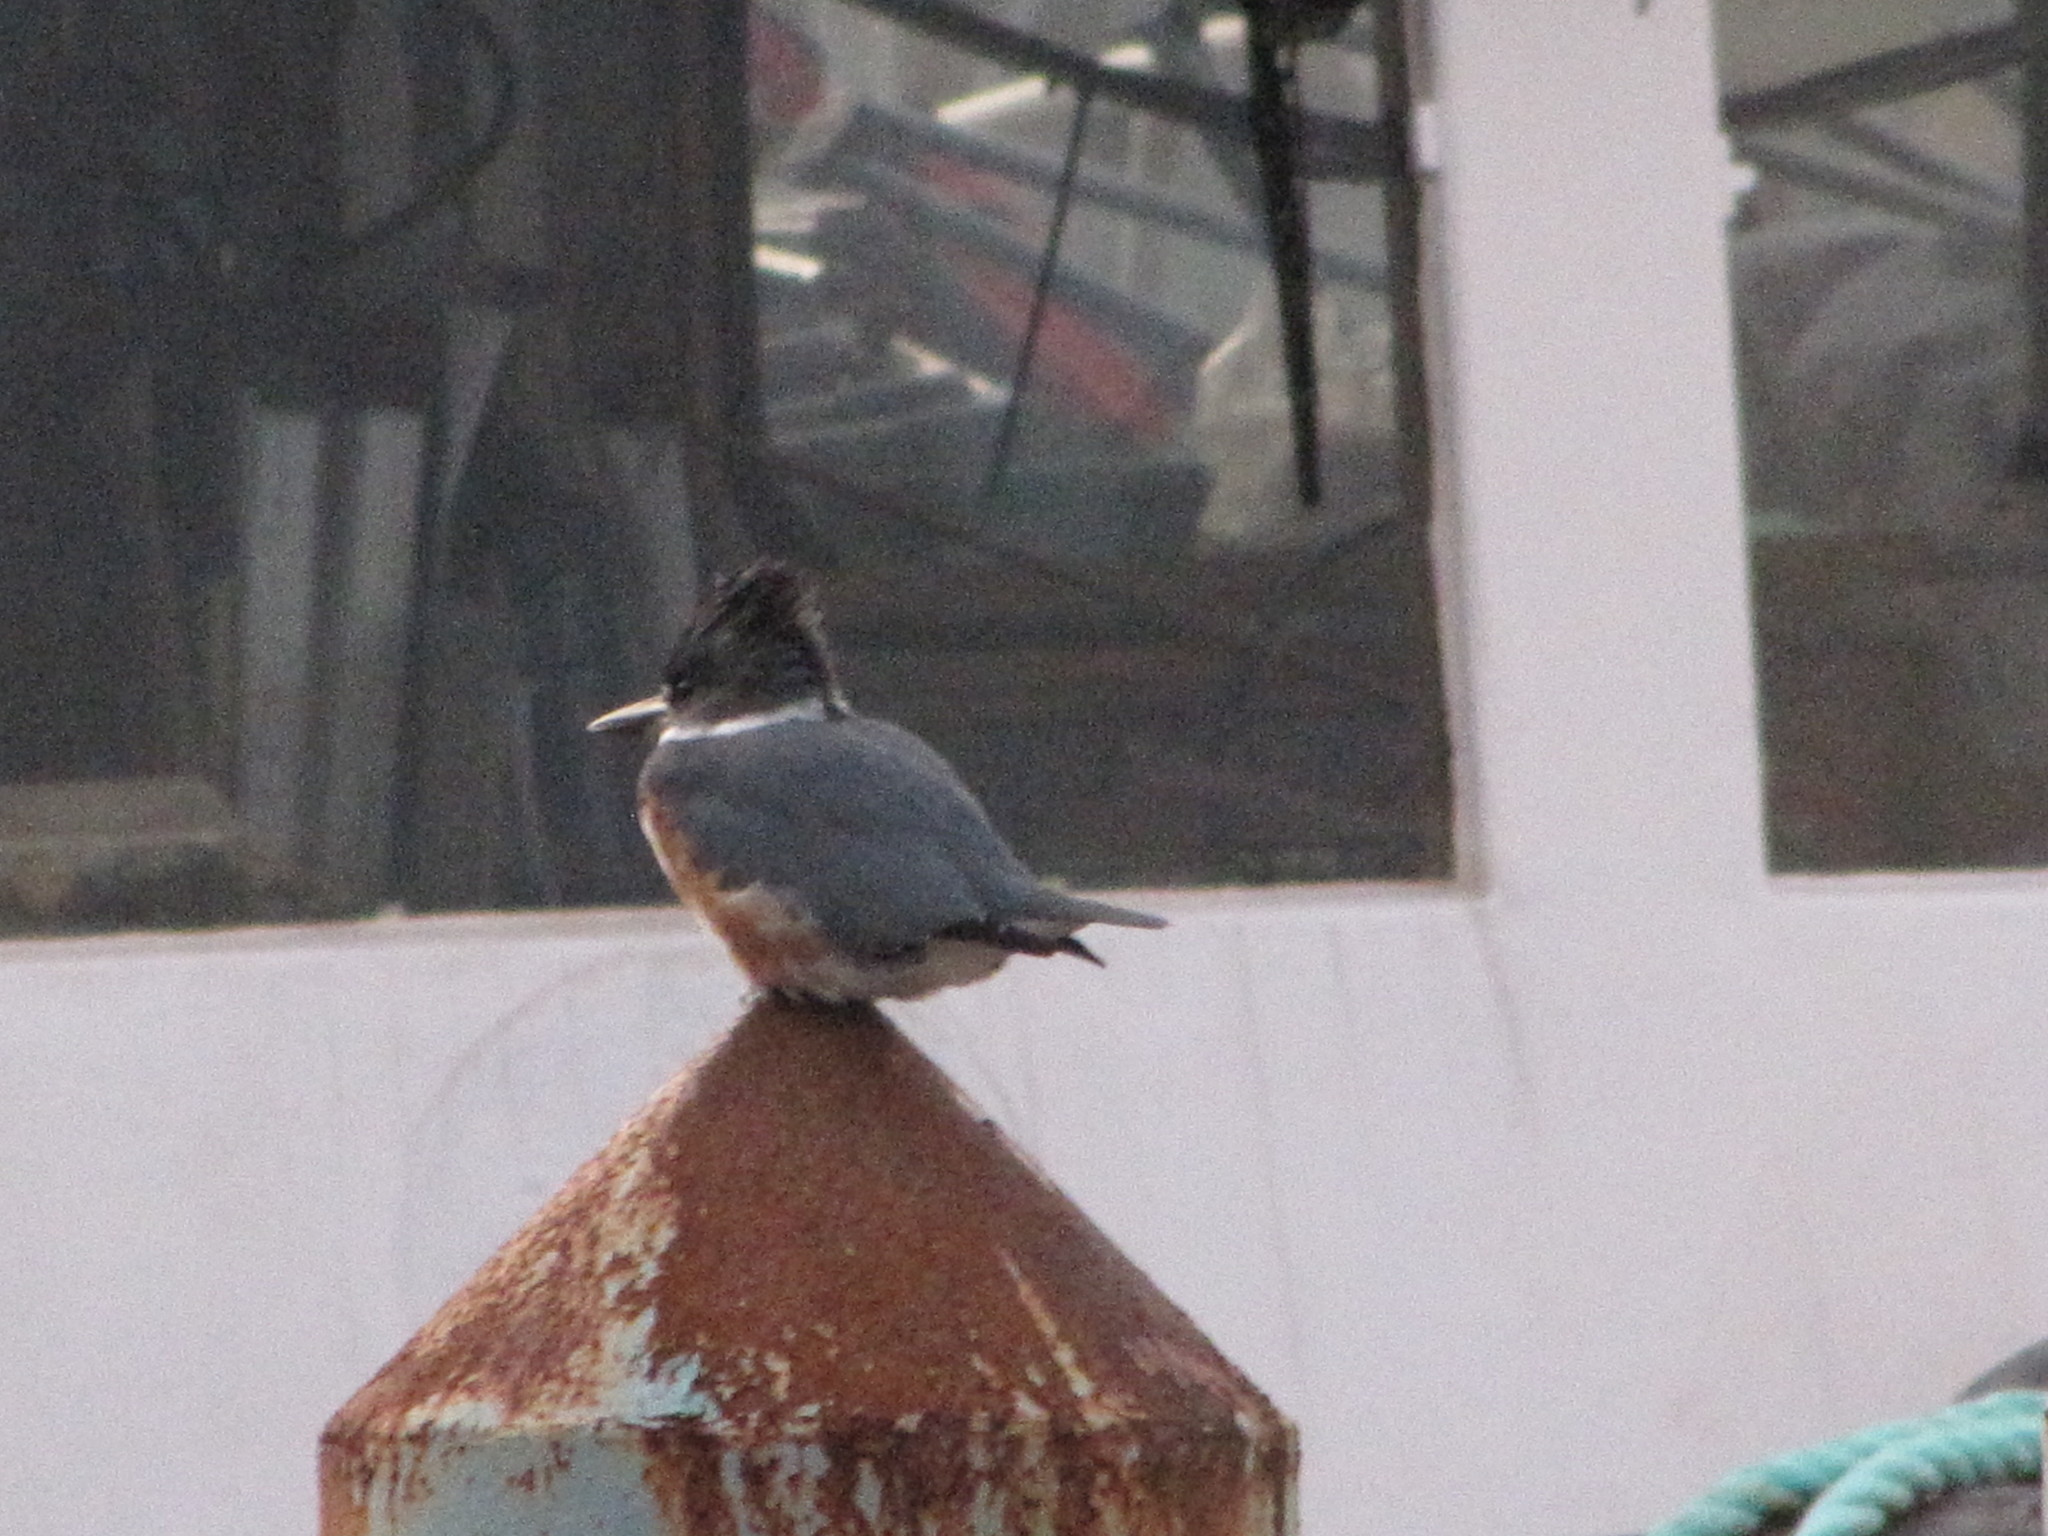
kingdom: Animalia
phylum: Chordata
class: Aves
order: Coraciiformes
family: Alcedinidae
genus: Megaceryle
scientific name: Megaceryle alcyon
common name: Belted kingfisher
